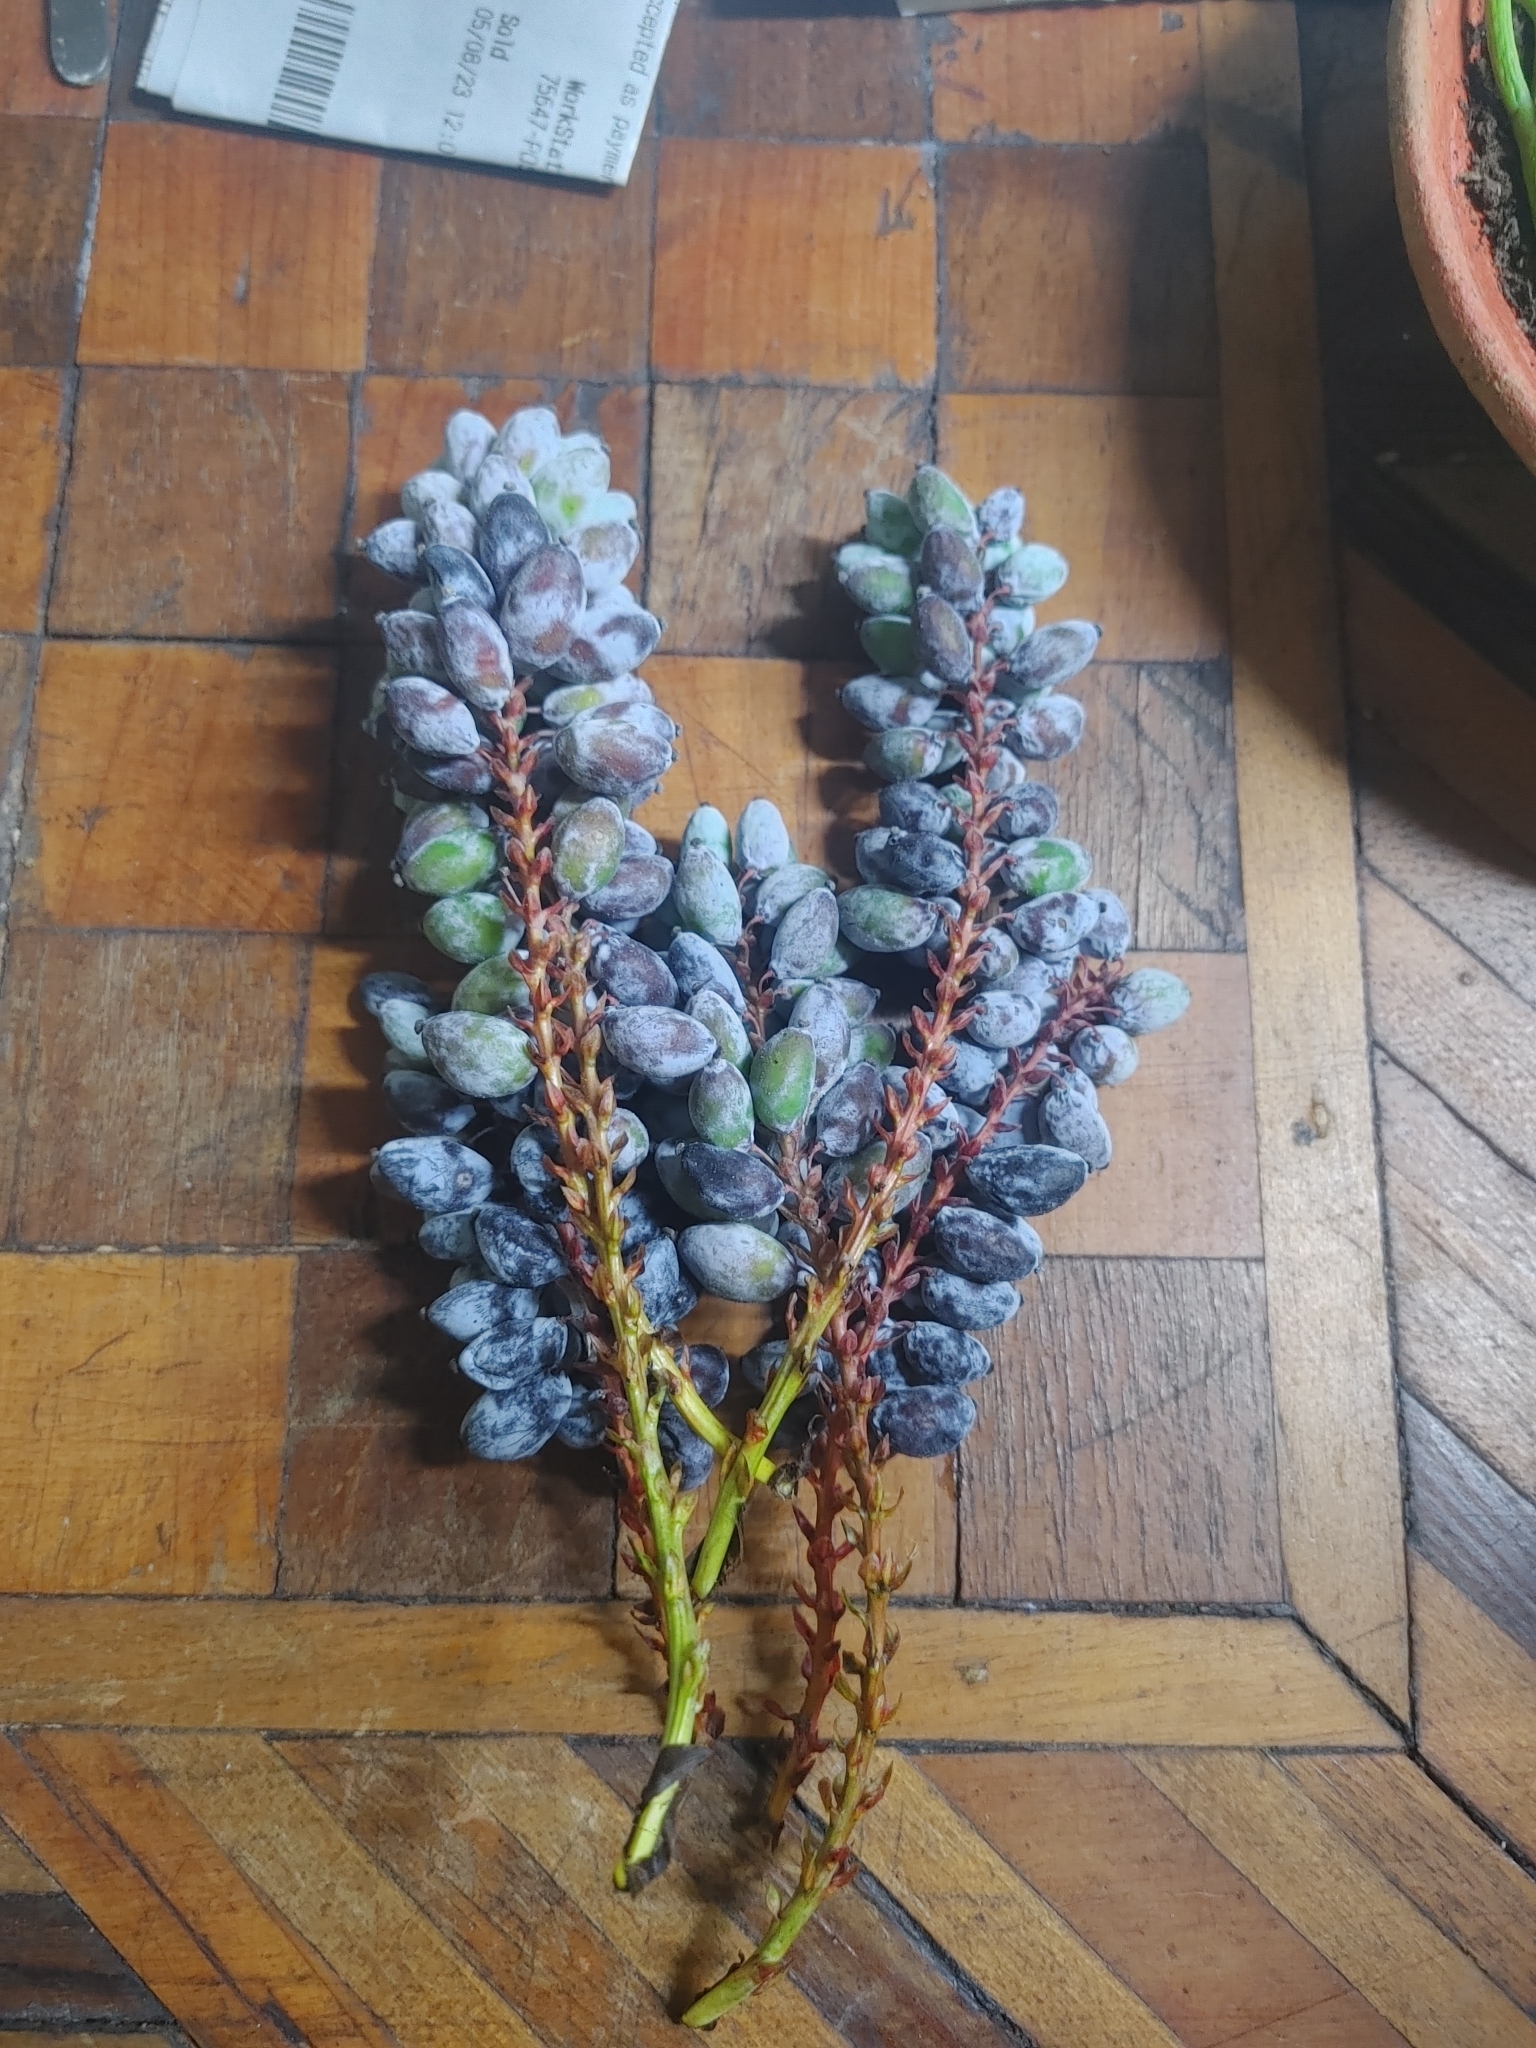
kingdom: Plantae
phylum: Tracheophyta
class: Magnoliopsida
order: Ranunculales
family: Berberidaceae
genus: Mahonia
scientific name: Mahonia bealei
